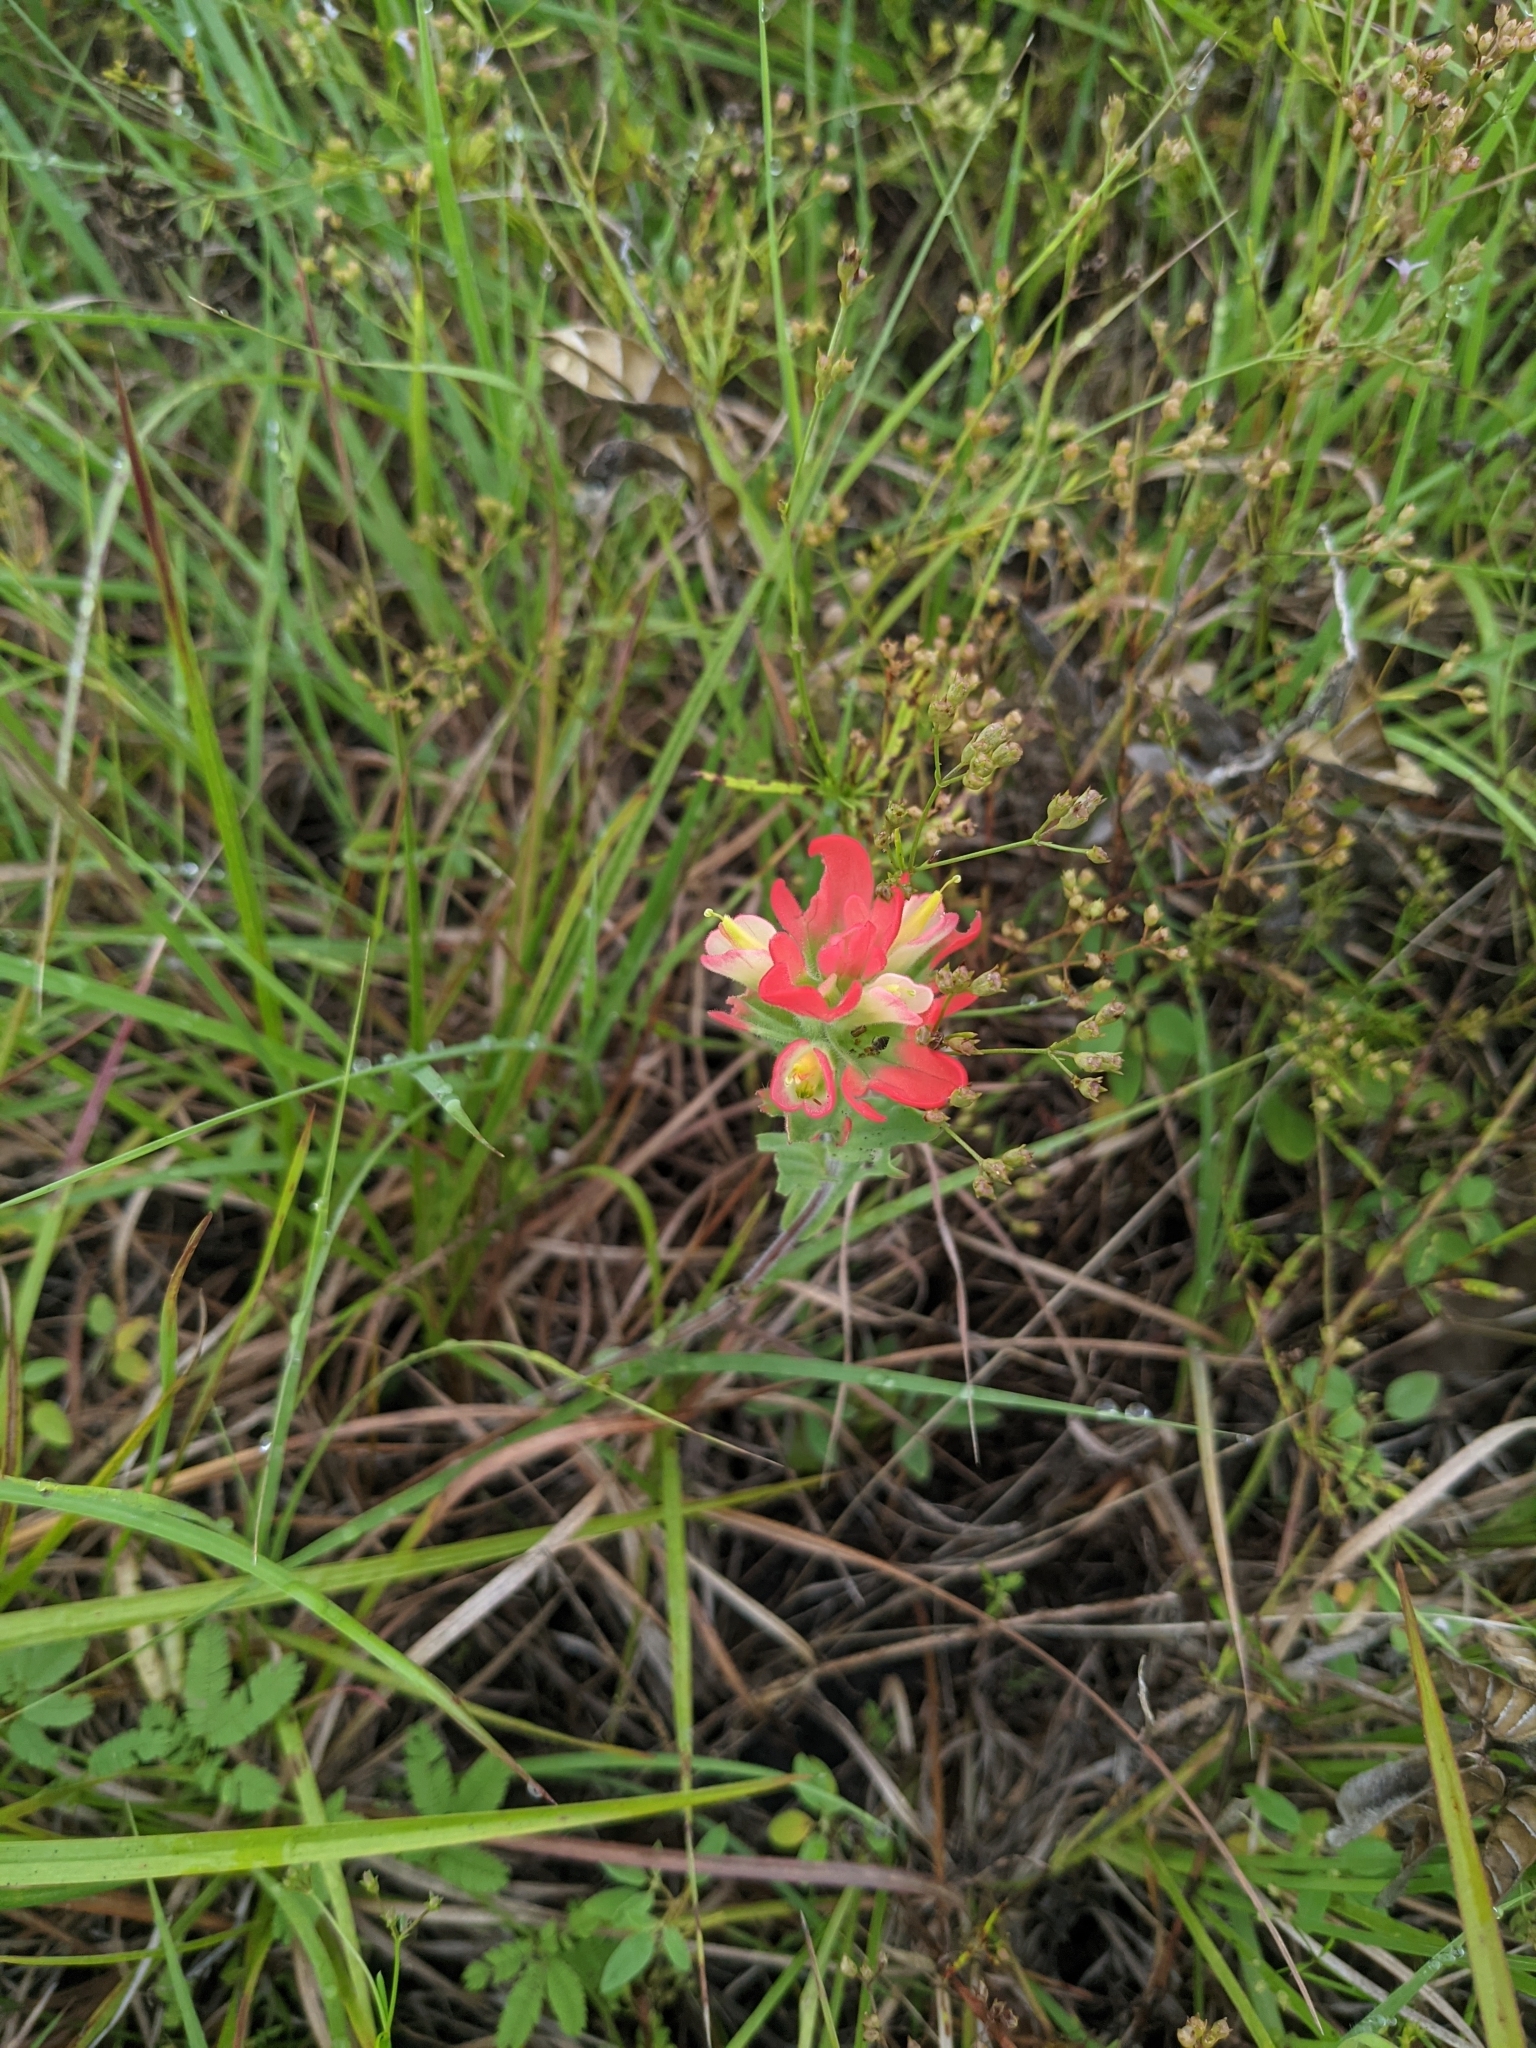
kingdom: Plantae
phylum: Tracheophyta
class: Magnoliopsida
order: Lamiales
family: Orobanchaceae
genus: Castilleja
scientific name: Castilleja indivisa
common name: Texas paintbrush
